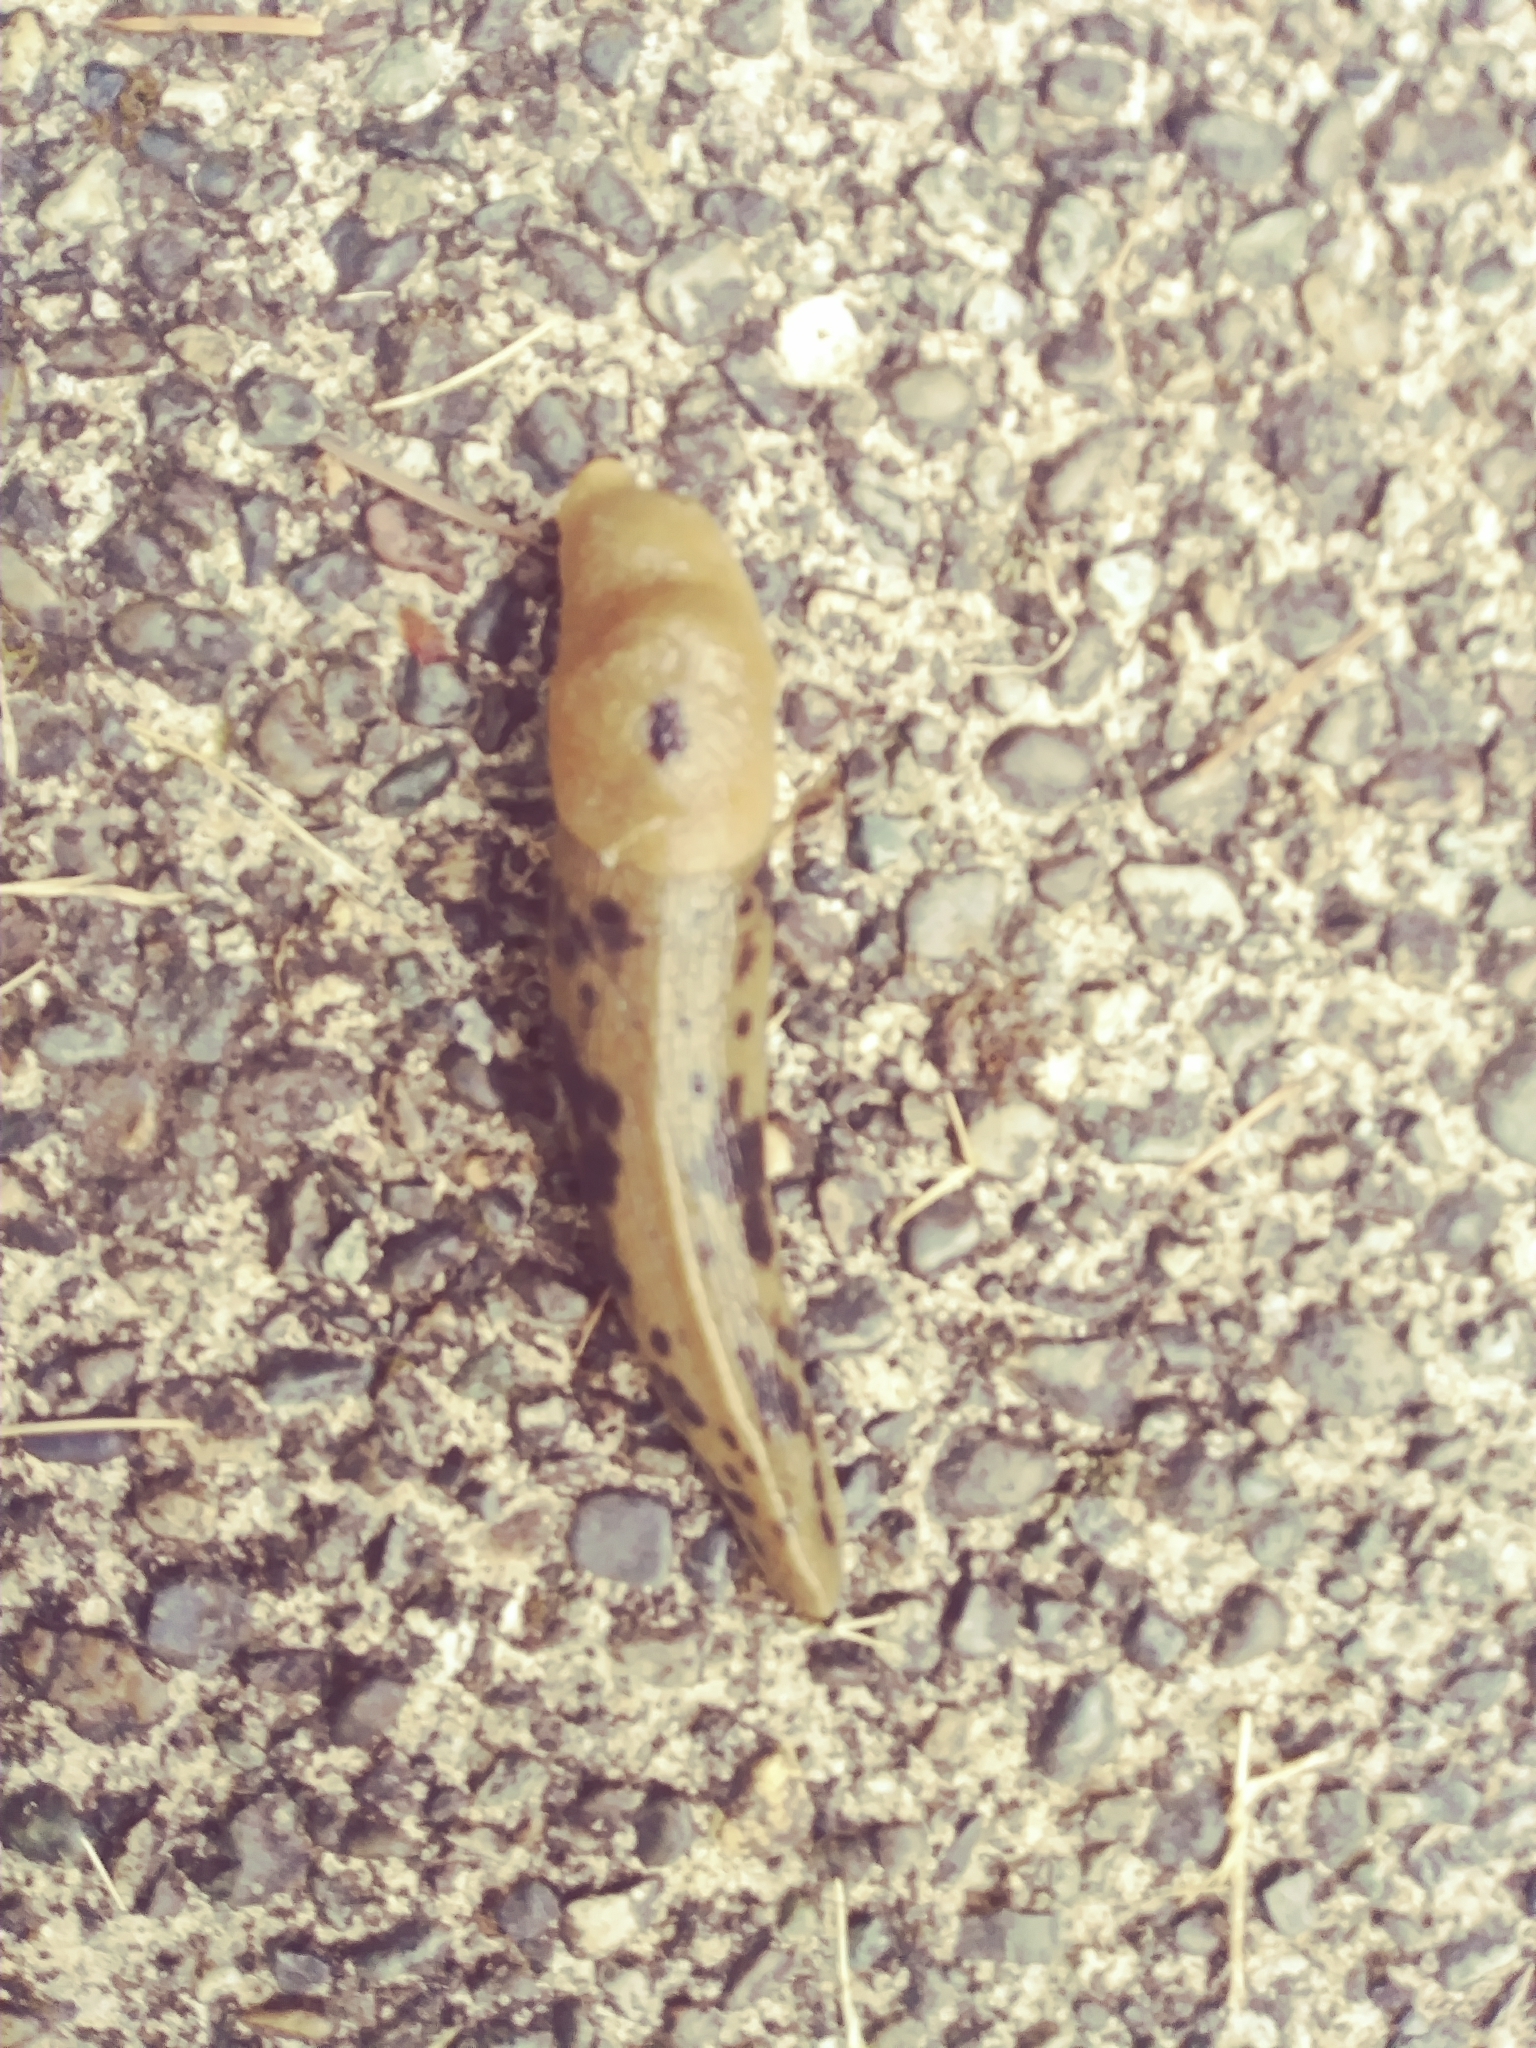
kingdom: Animalia
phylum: Mollusca
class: Gastropoda
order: Stylommatophora
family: Ariolimacidae
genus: Ariolimax
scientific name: Ariolimax columbianus
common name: Pacific banana slug
